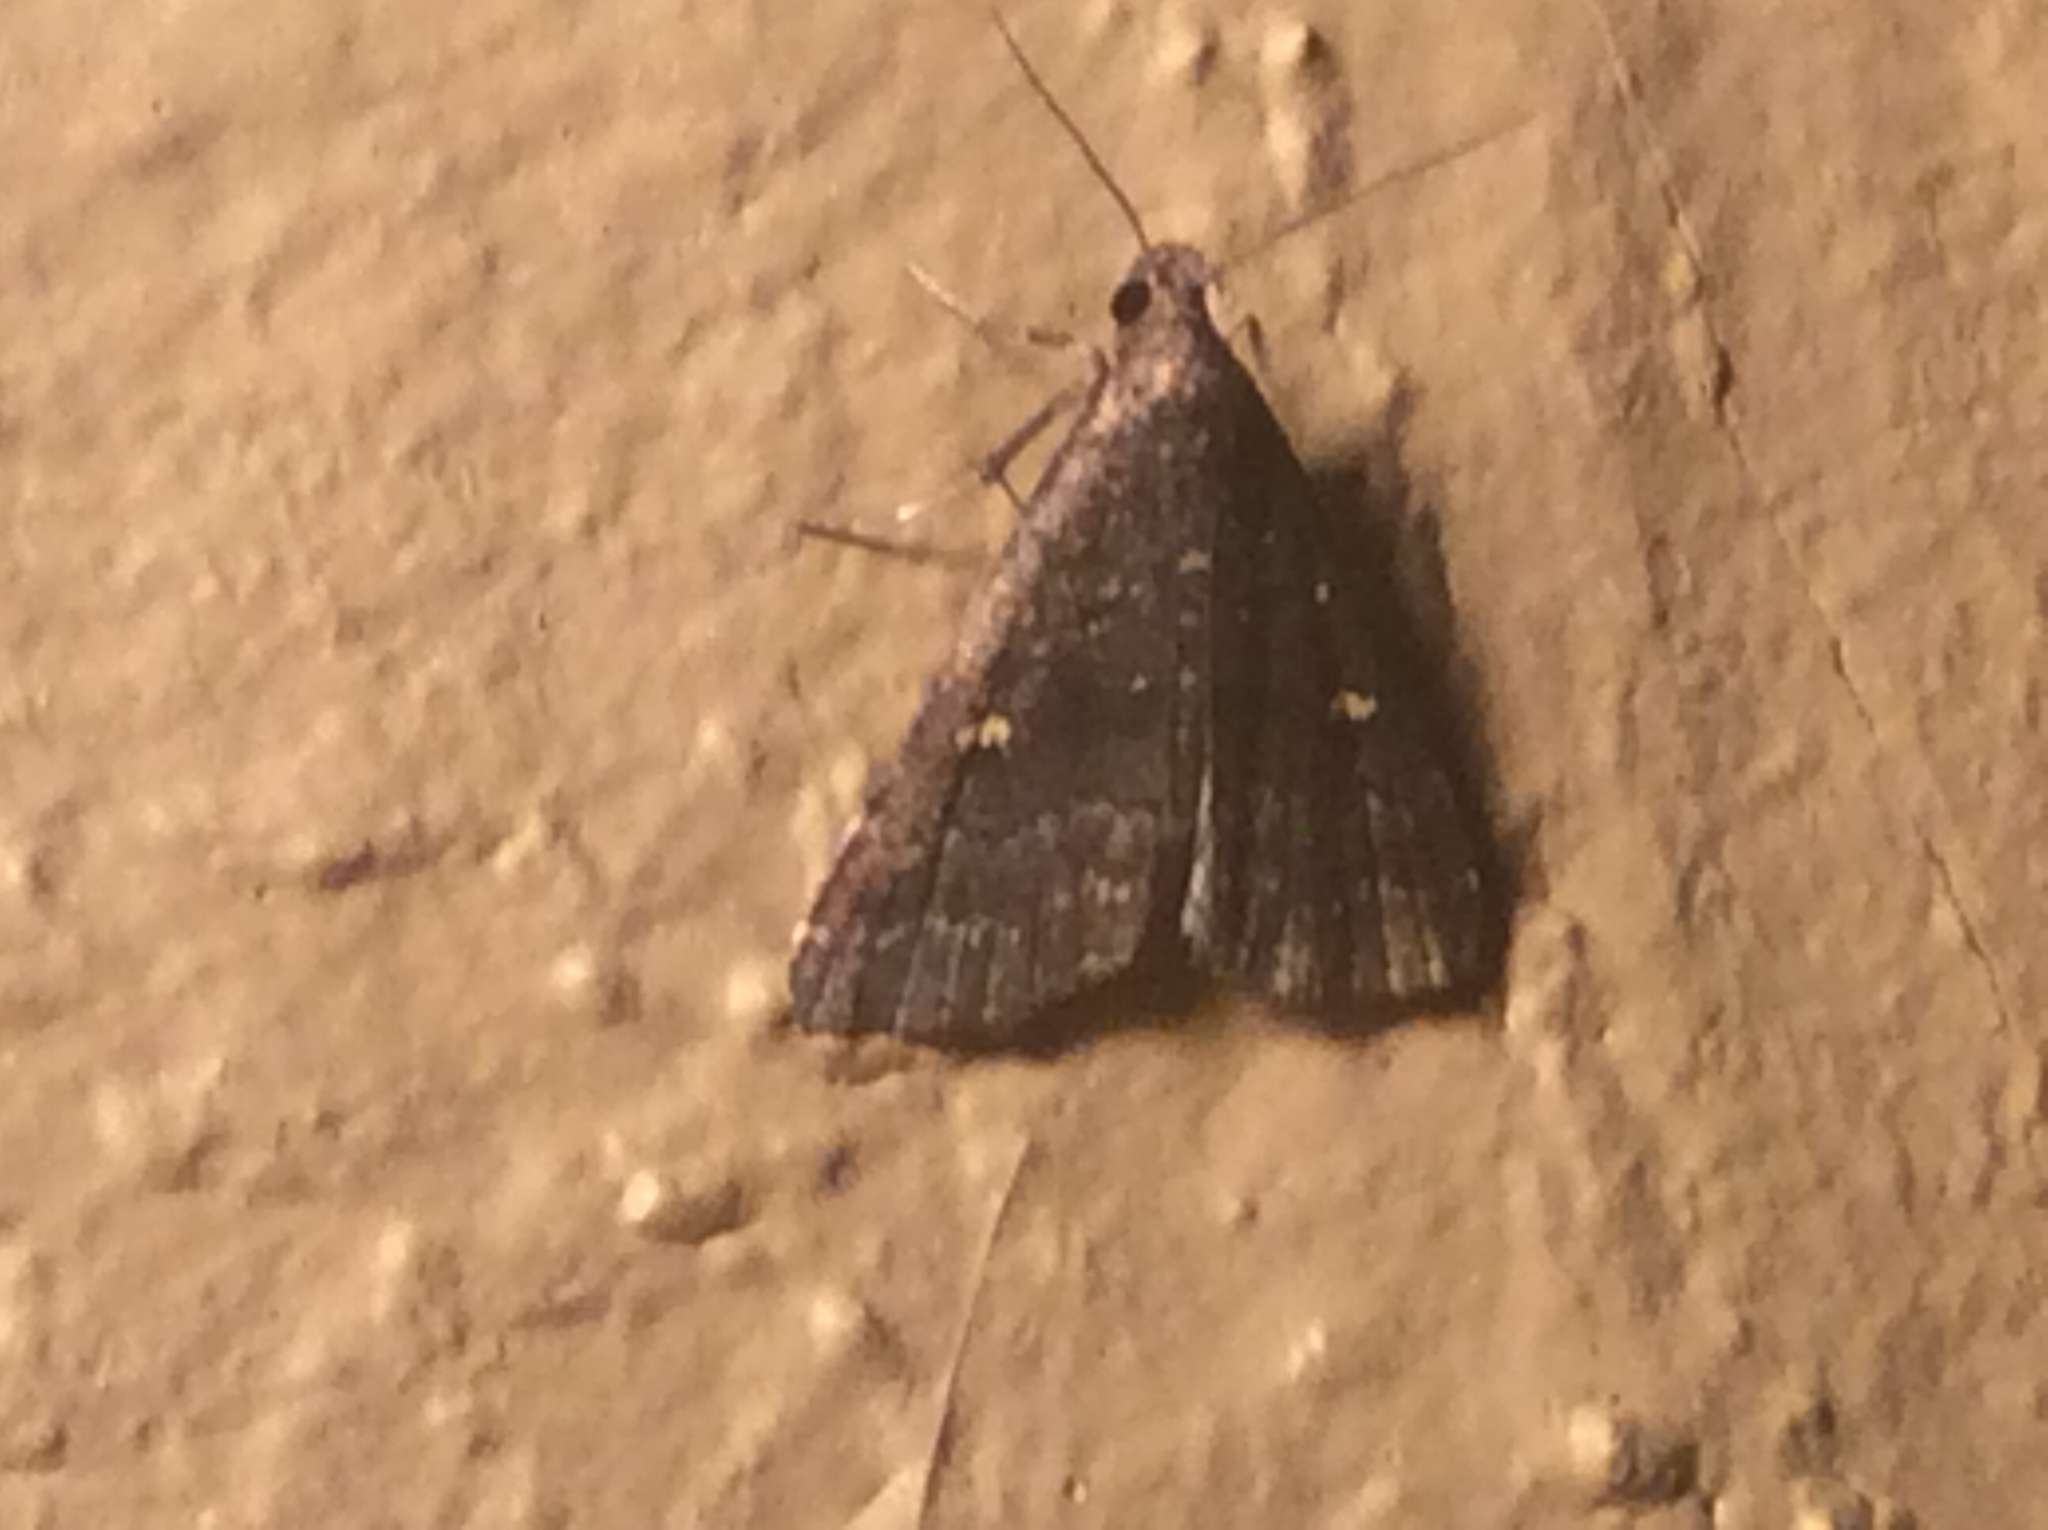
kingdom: Animalia
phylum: Arthropoda
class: Insecta
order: Lepidoptera
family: Erebidae
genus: Tetanolita
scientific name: Tetanolita mynesalis
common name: Smoky tetanolita moth
